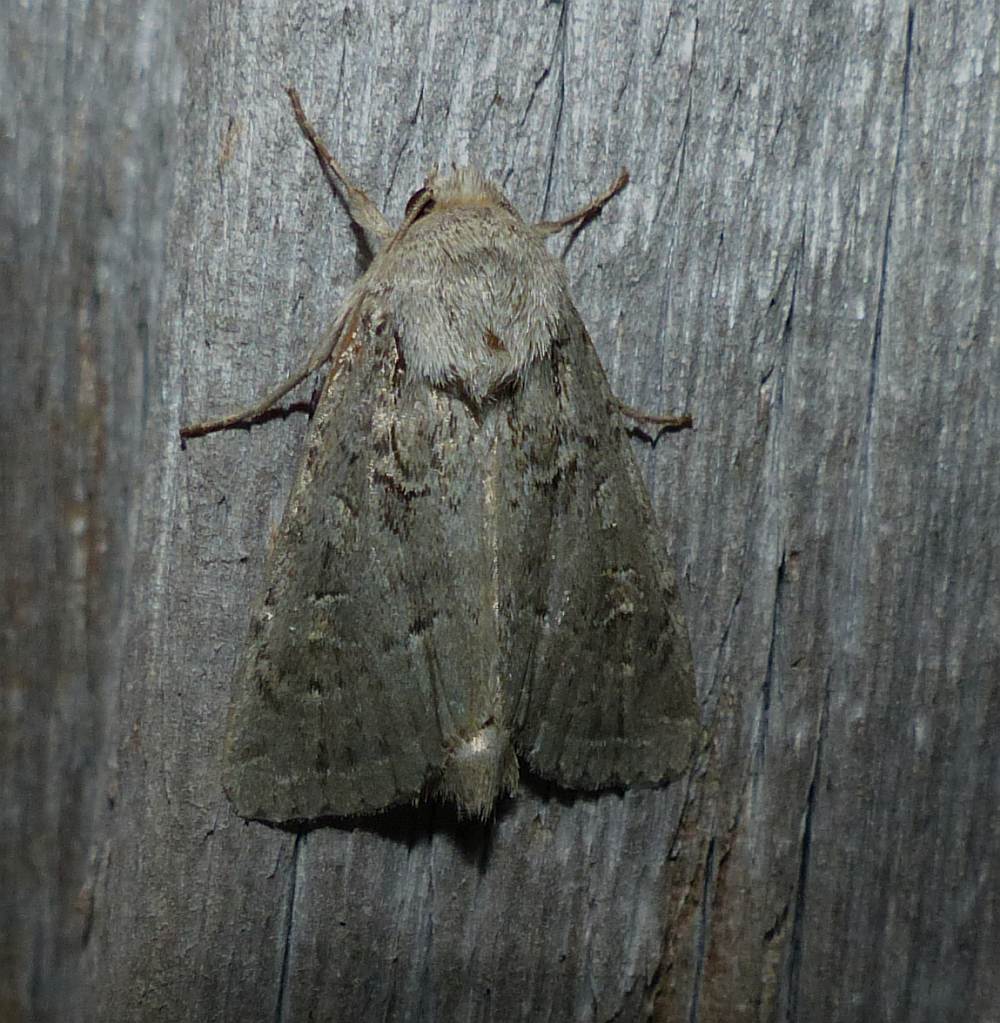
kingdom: Animalia
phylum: Arthropoda
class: Insecta
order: Lepidoptera
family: Noctuidae
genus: Apamea
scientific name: Apamea devastator
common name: Glassy cutworm
